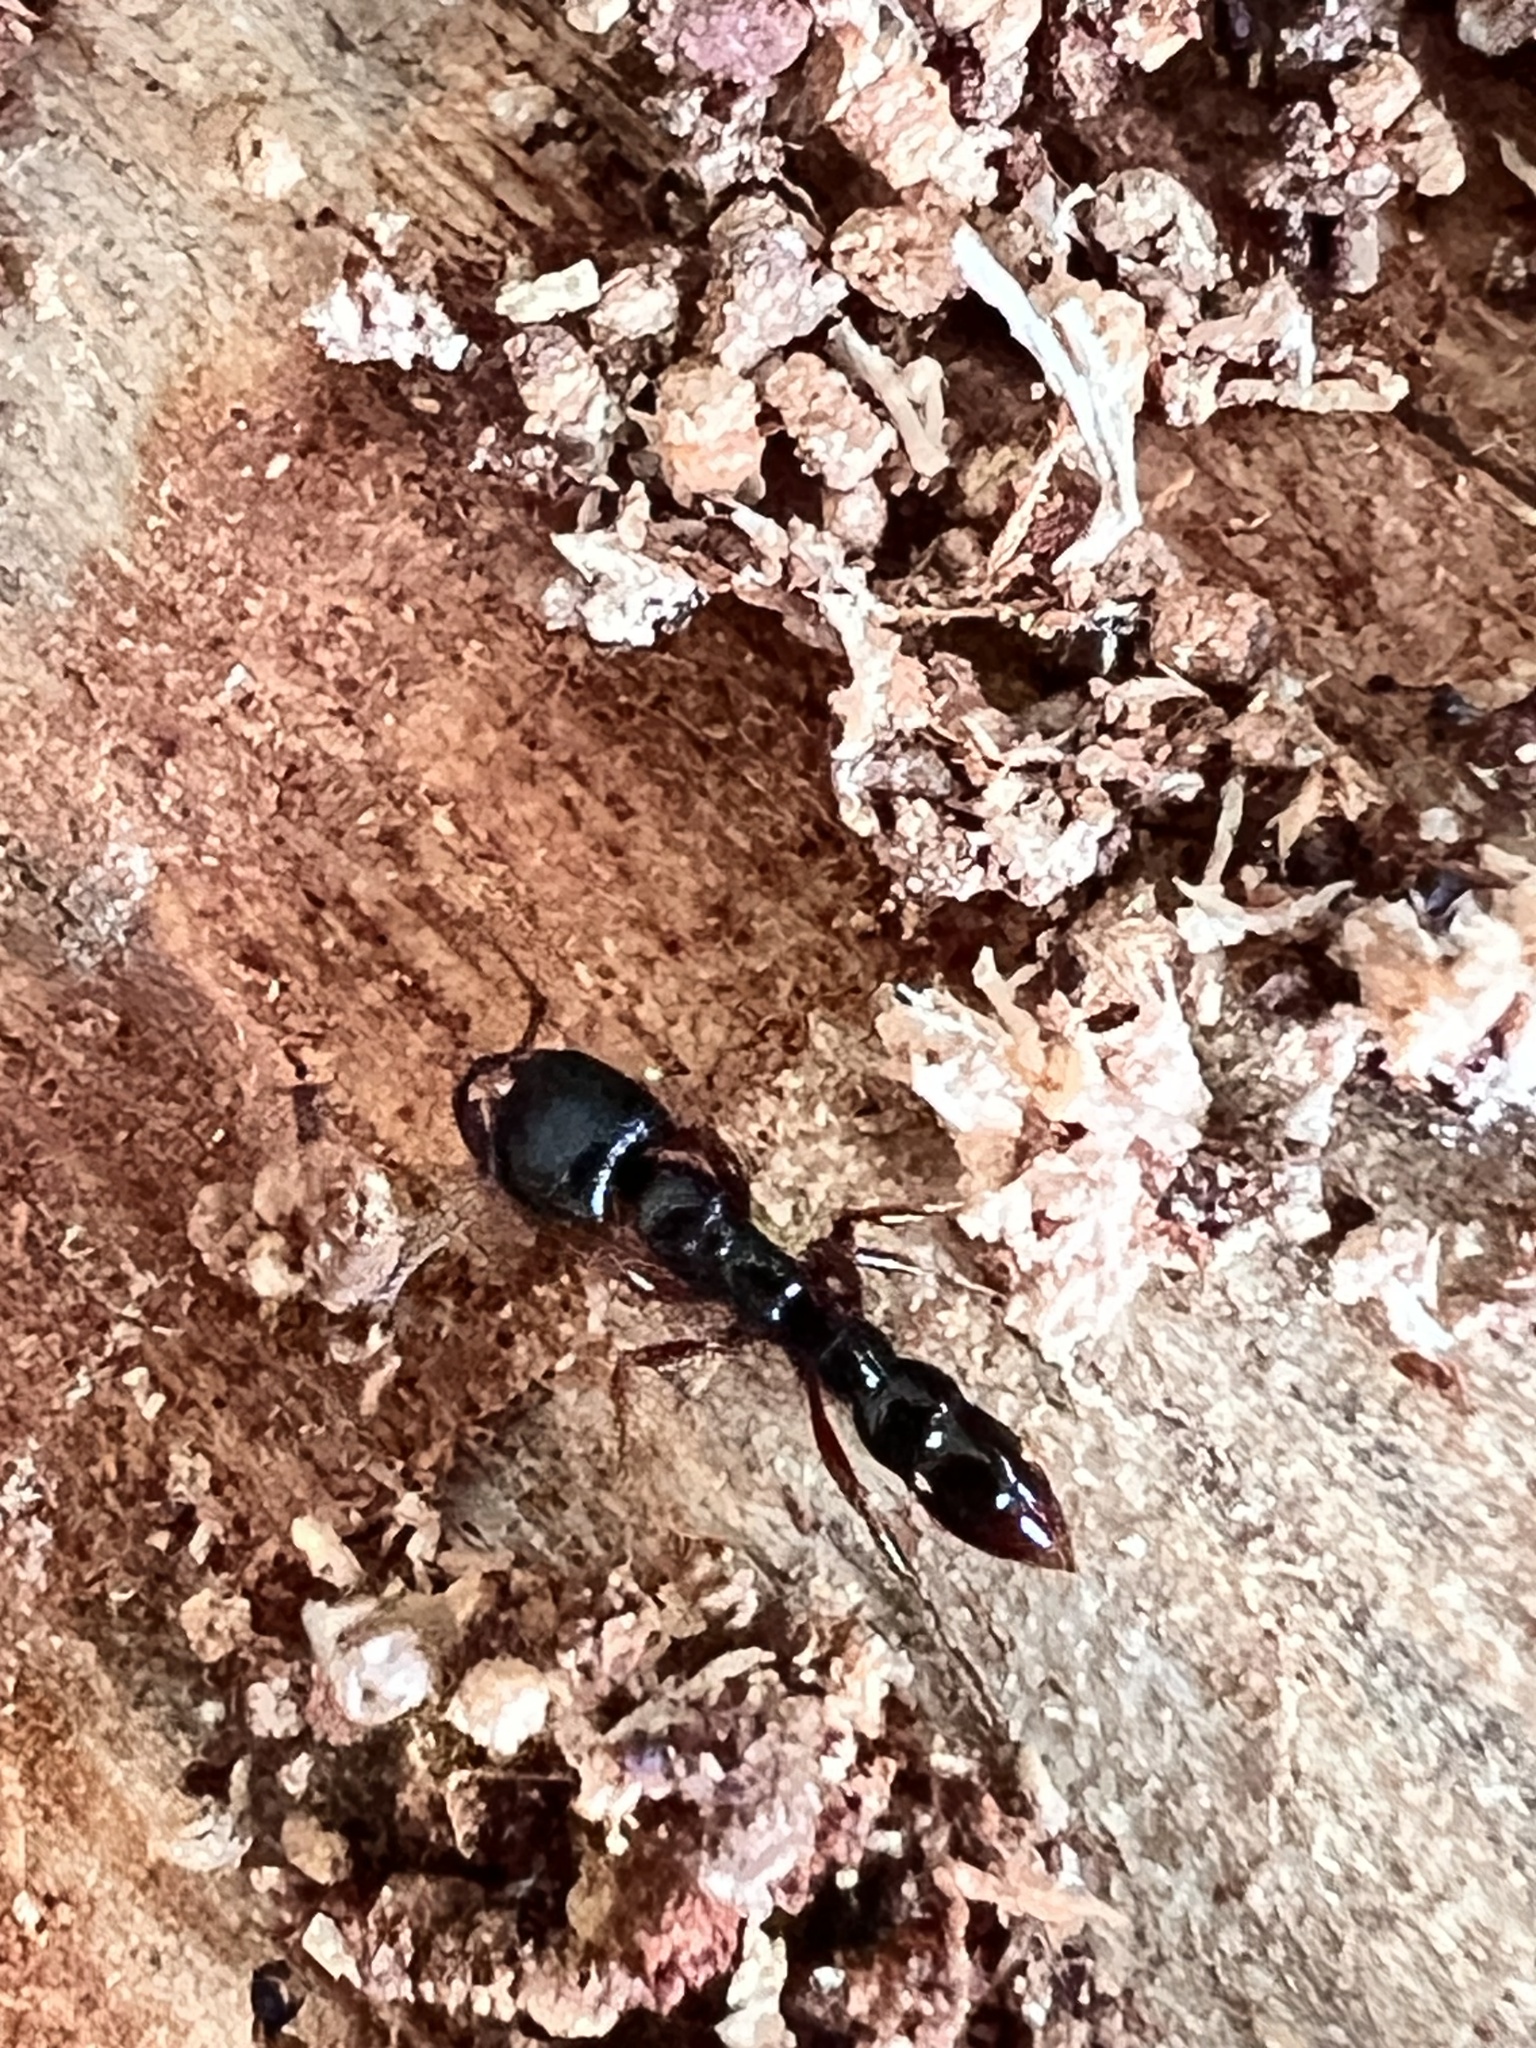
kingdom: Animalia
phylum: Arthropoda
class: Insecta
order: Hymenoptera
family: Formicidae
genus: Amblyopone
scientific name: Amblyopone australis
